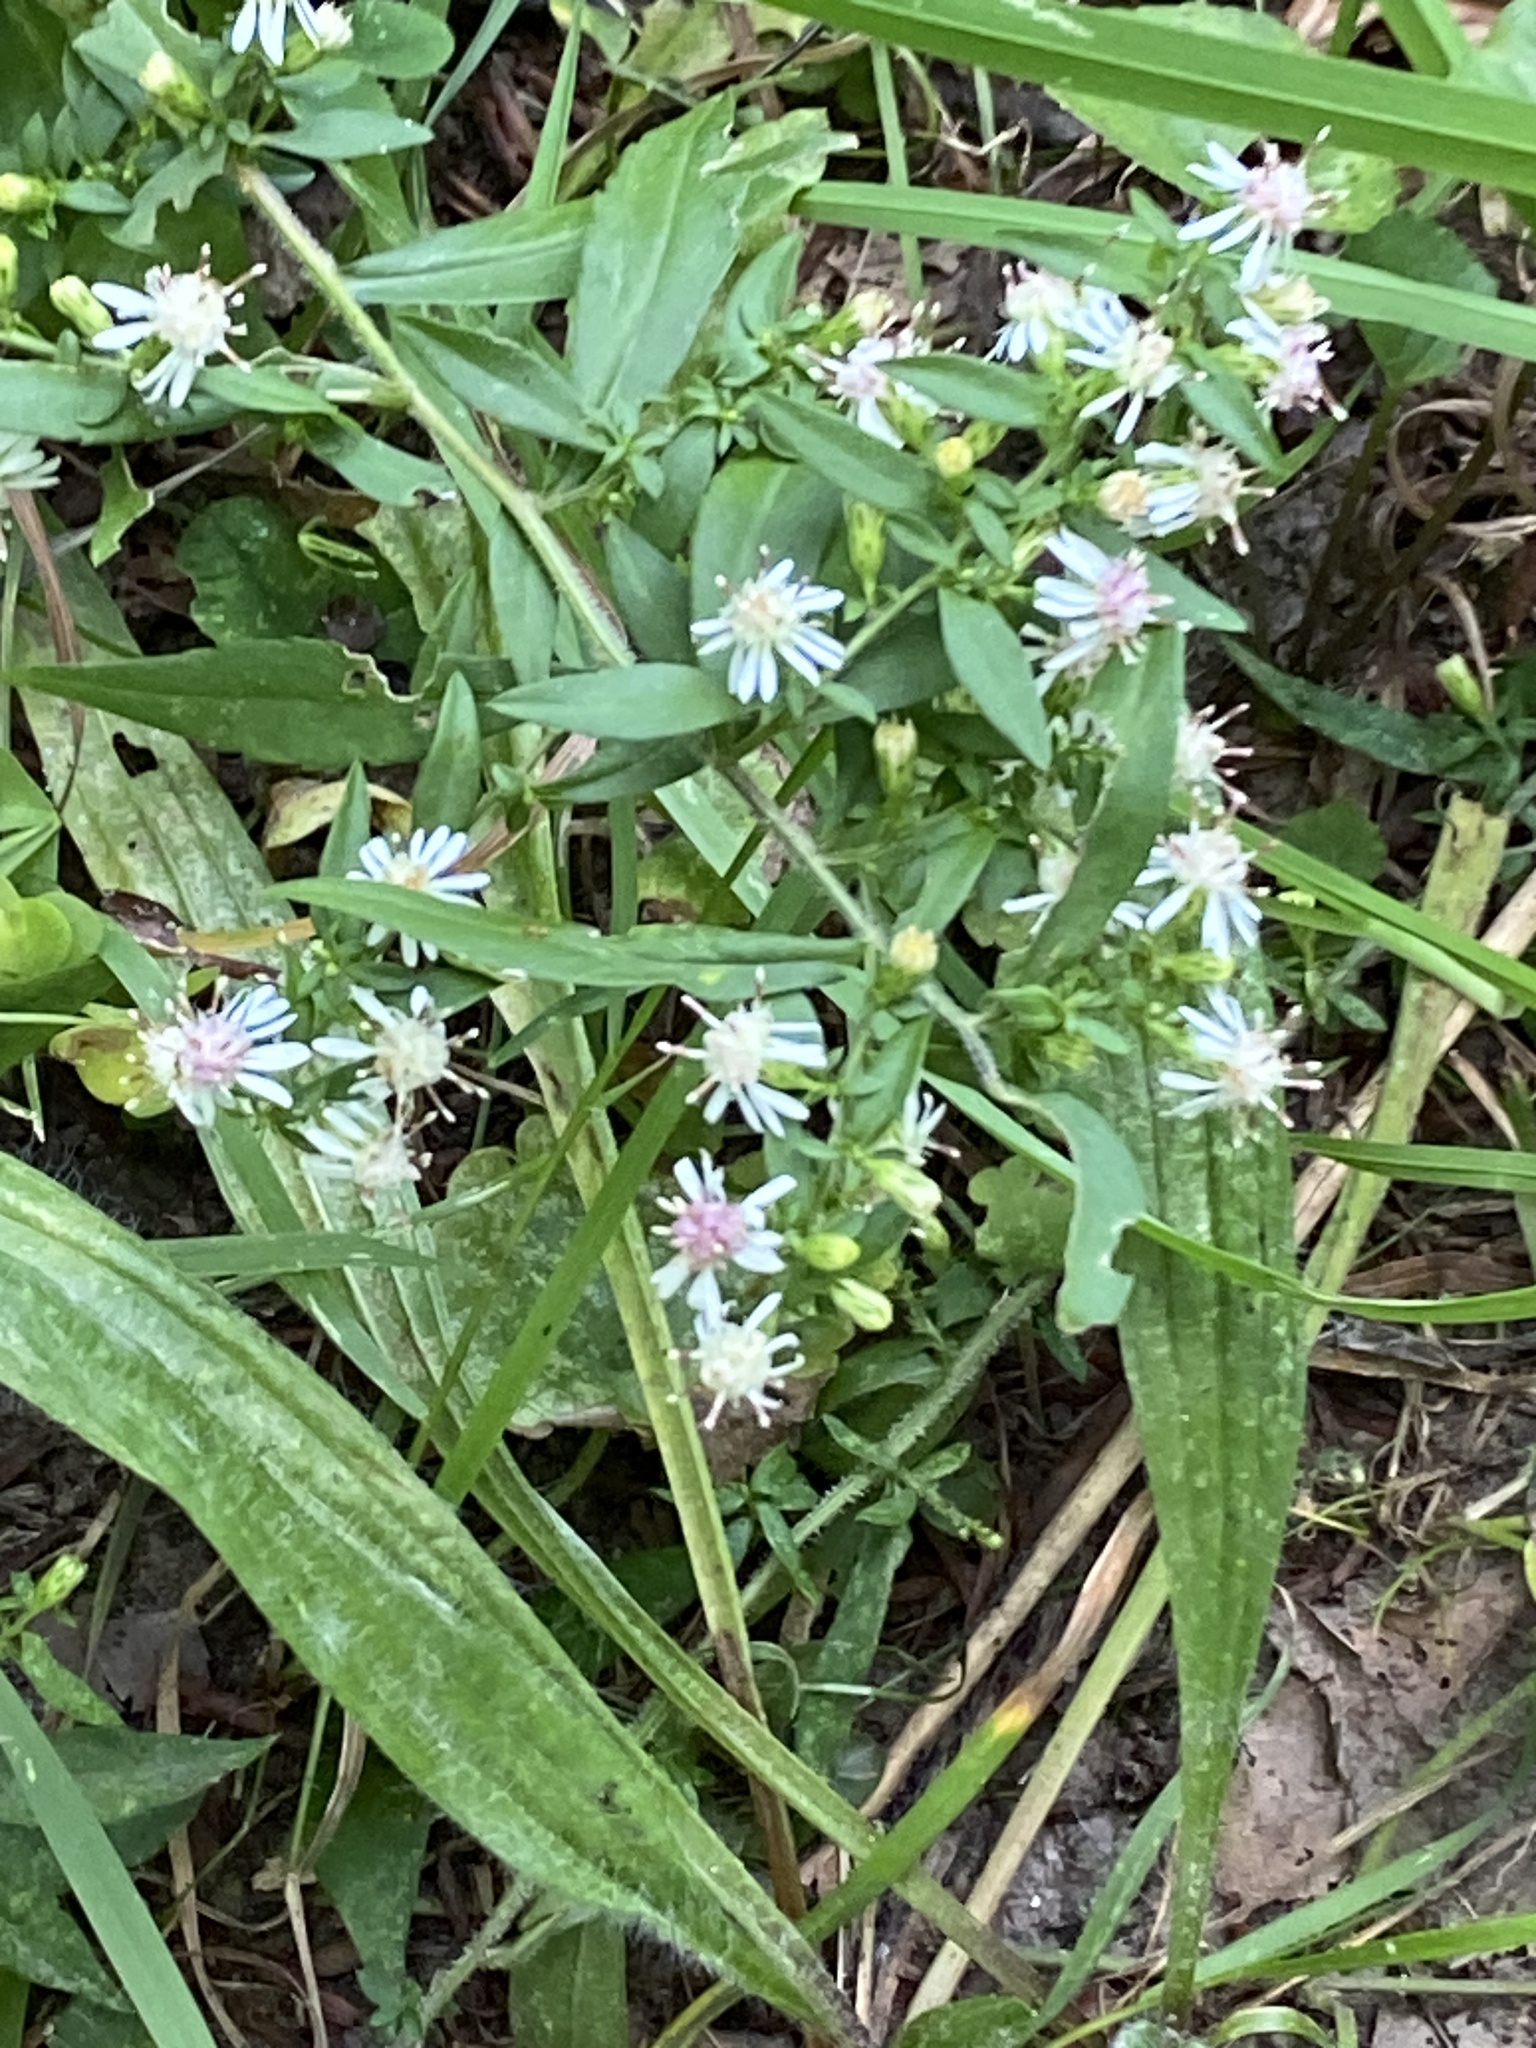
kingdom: Plantae
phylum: Tracheophyta
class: Magnoliopsida
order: Asterales
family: Asteraceae
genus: Symphyotrichum
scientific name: Symphyotrichum lateriflorum
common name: Calico aster
